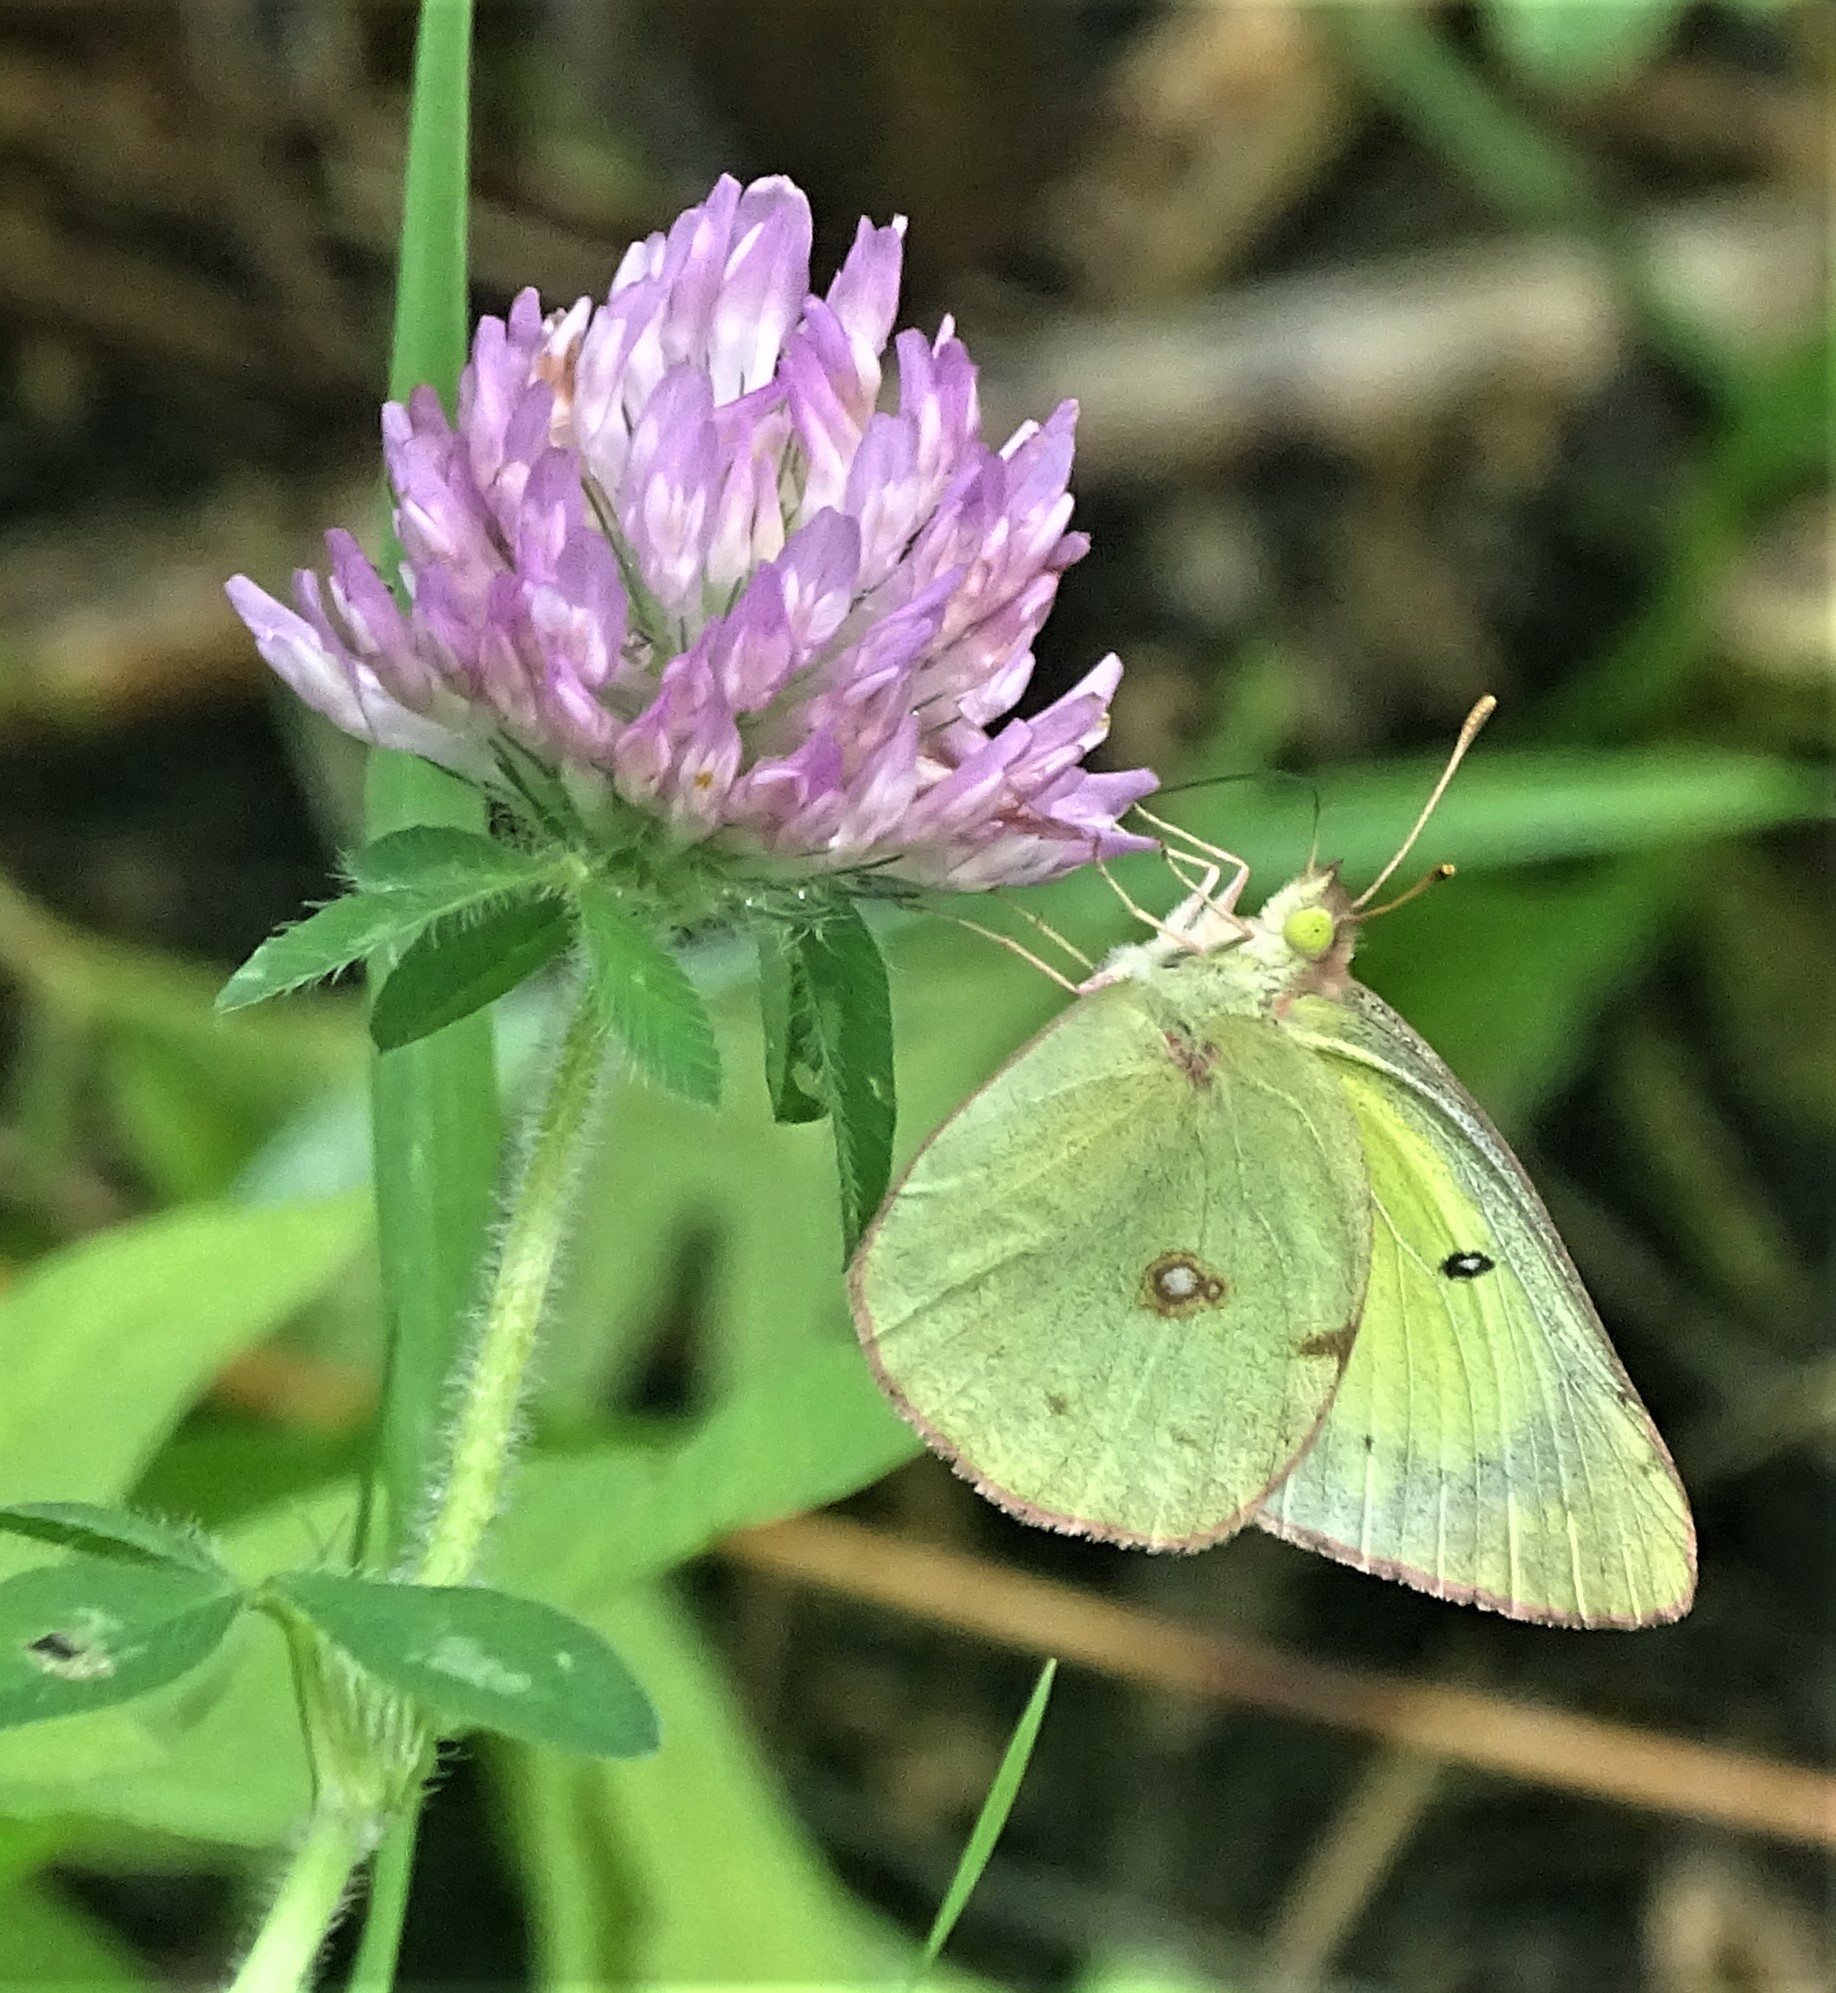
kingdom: Animalia
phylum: Arthropoda
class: Insecta
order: Lepidoptera
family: Pieridae
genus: Colias
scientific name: Colias philodice
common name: Clouded sulphur
